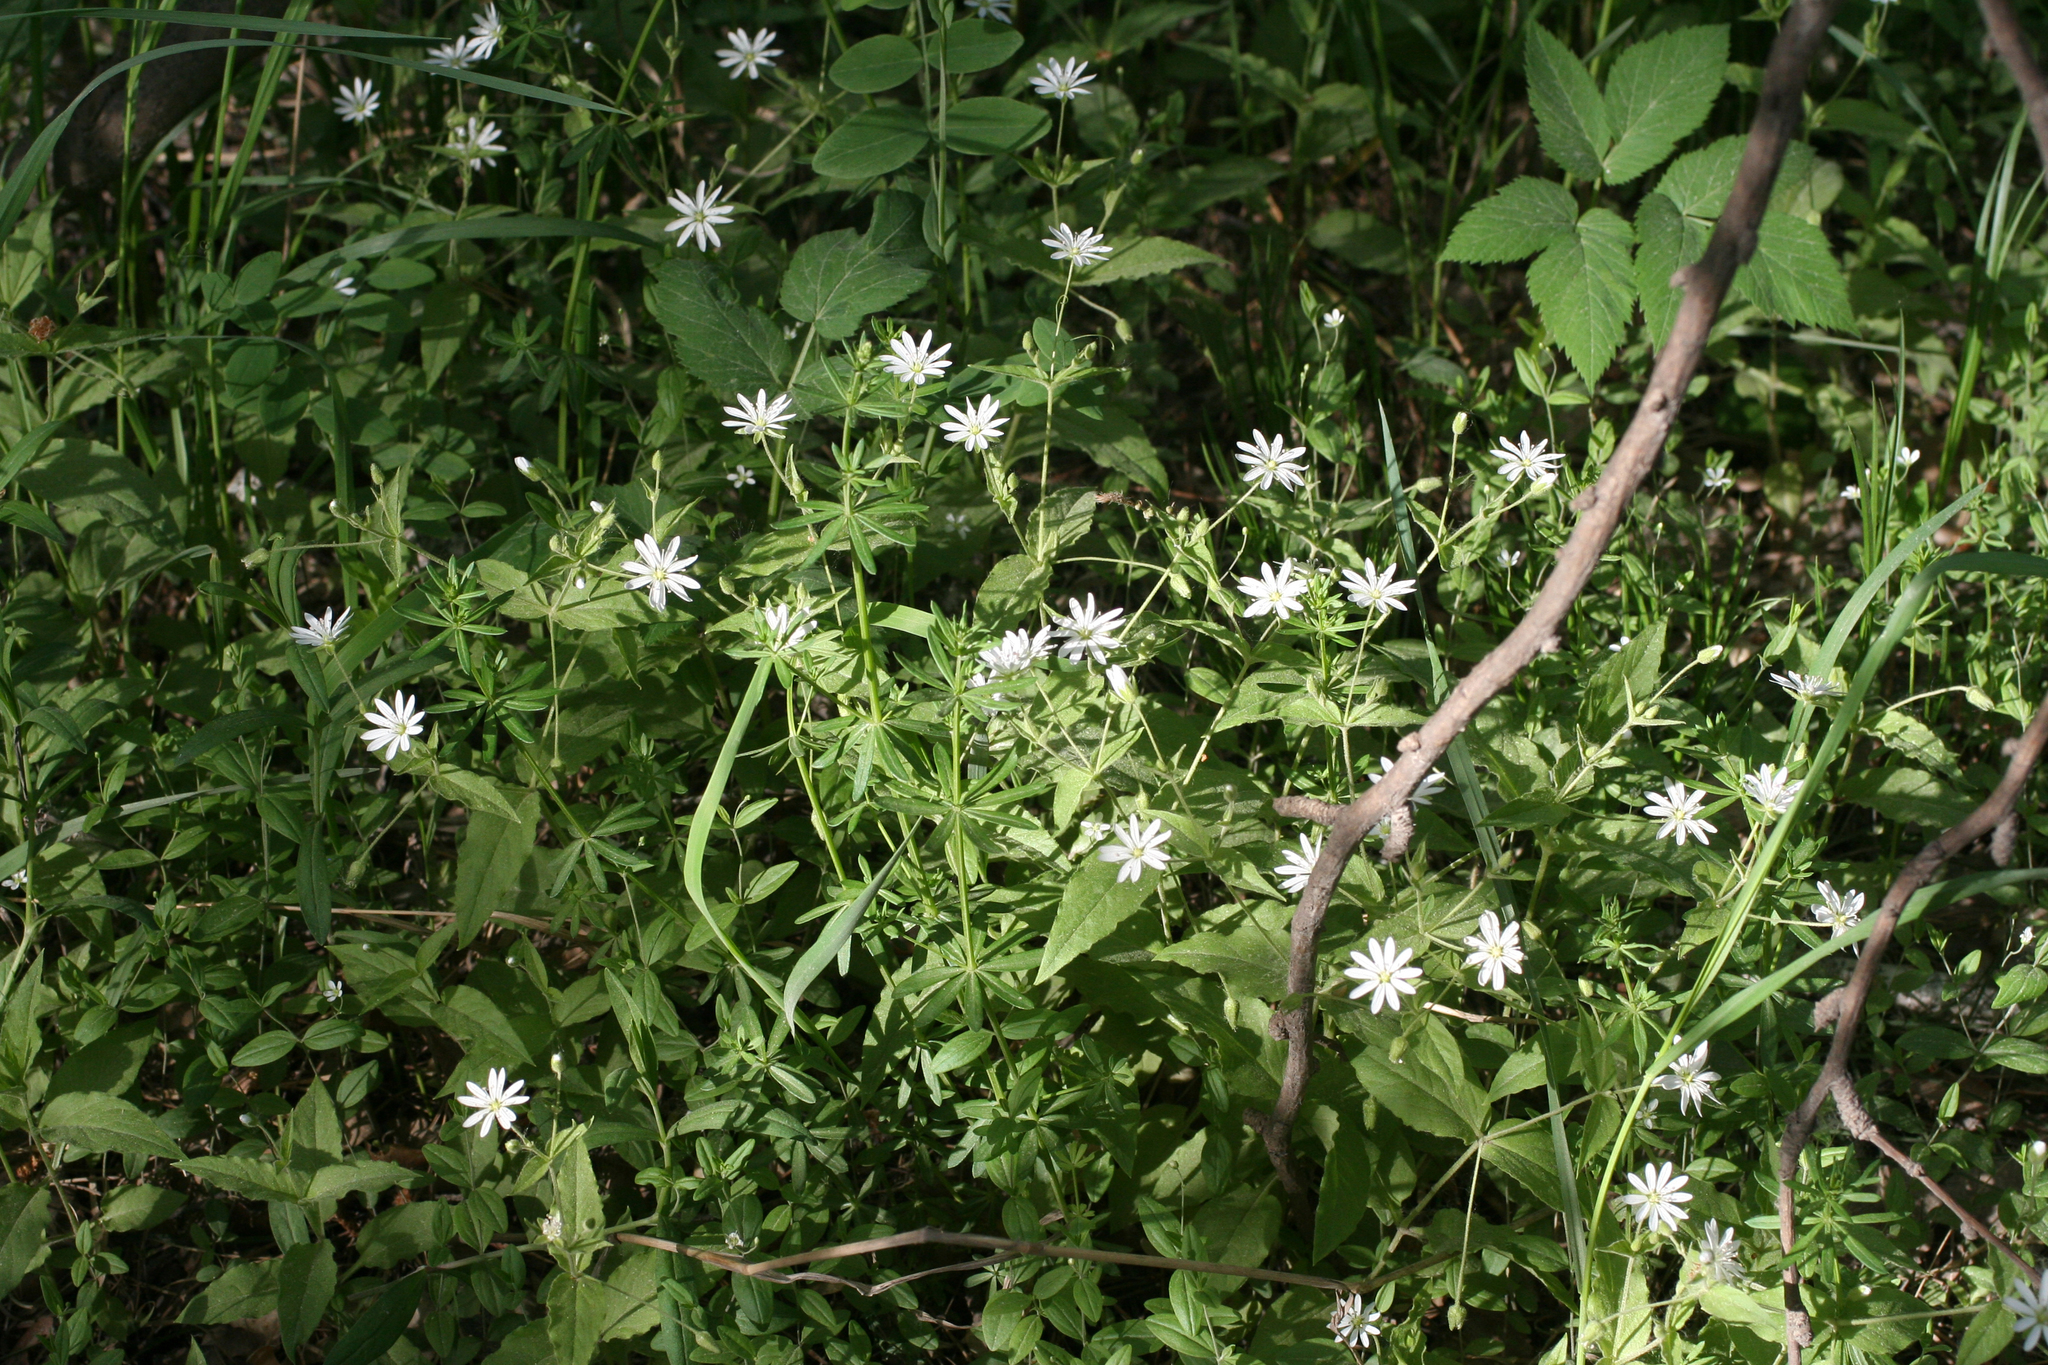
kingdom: Plantae
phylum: Tracheophyta
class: Magnoliopsida
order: Caryophyllales
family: Caryophyllaceae
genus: Stellaria
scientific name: Stellaria bungeana
